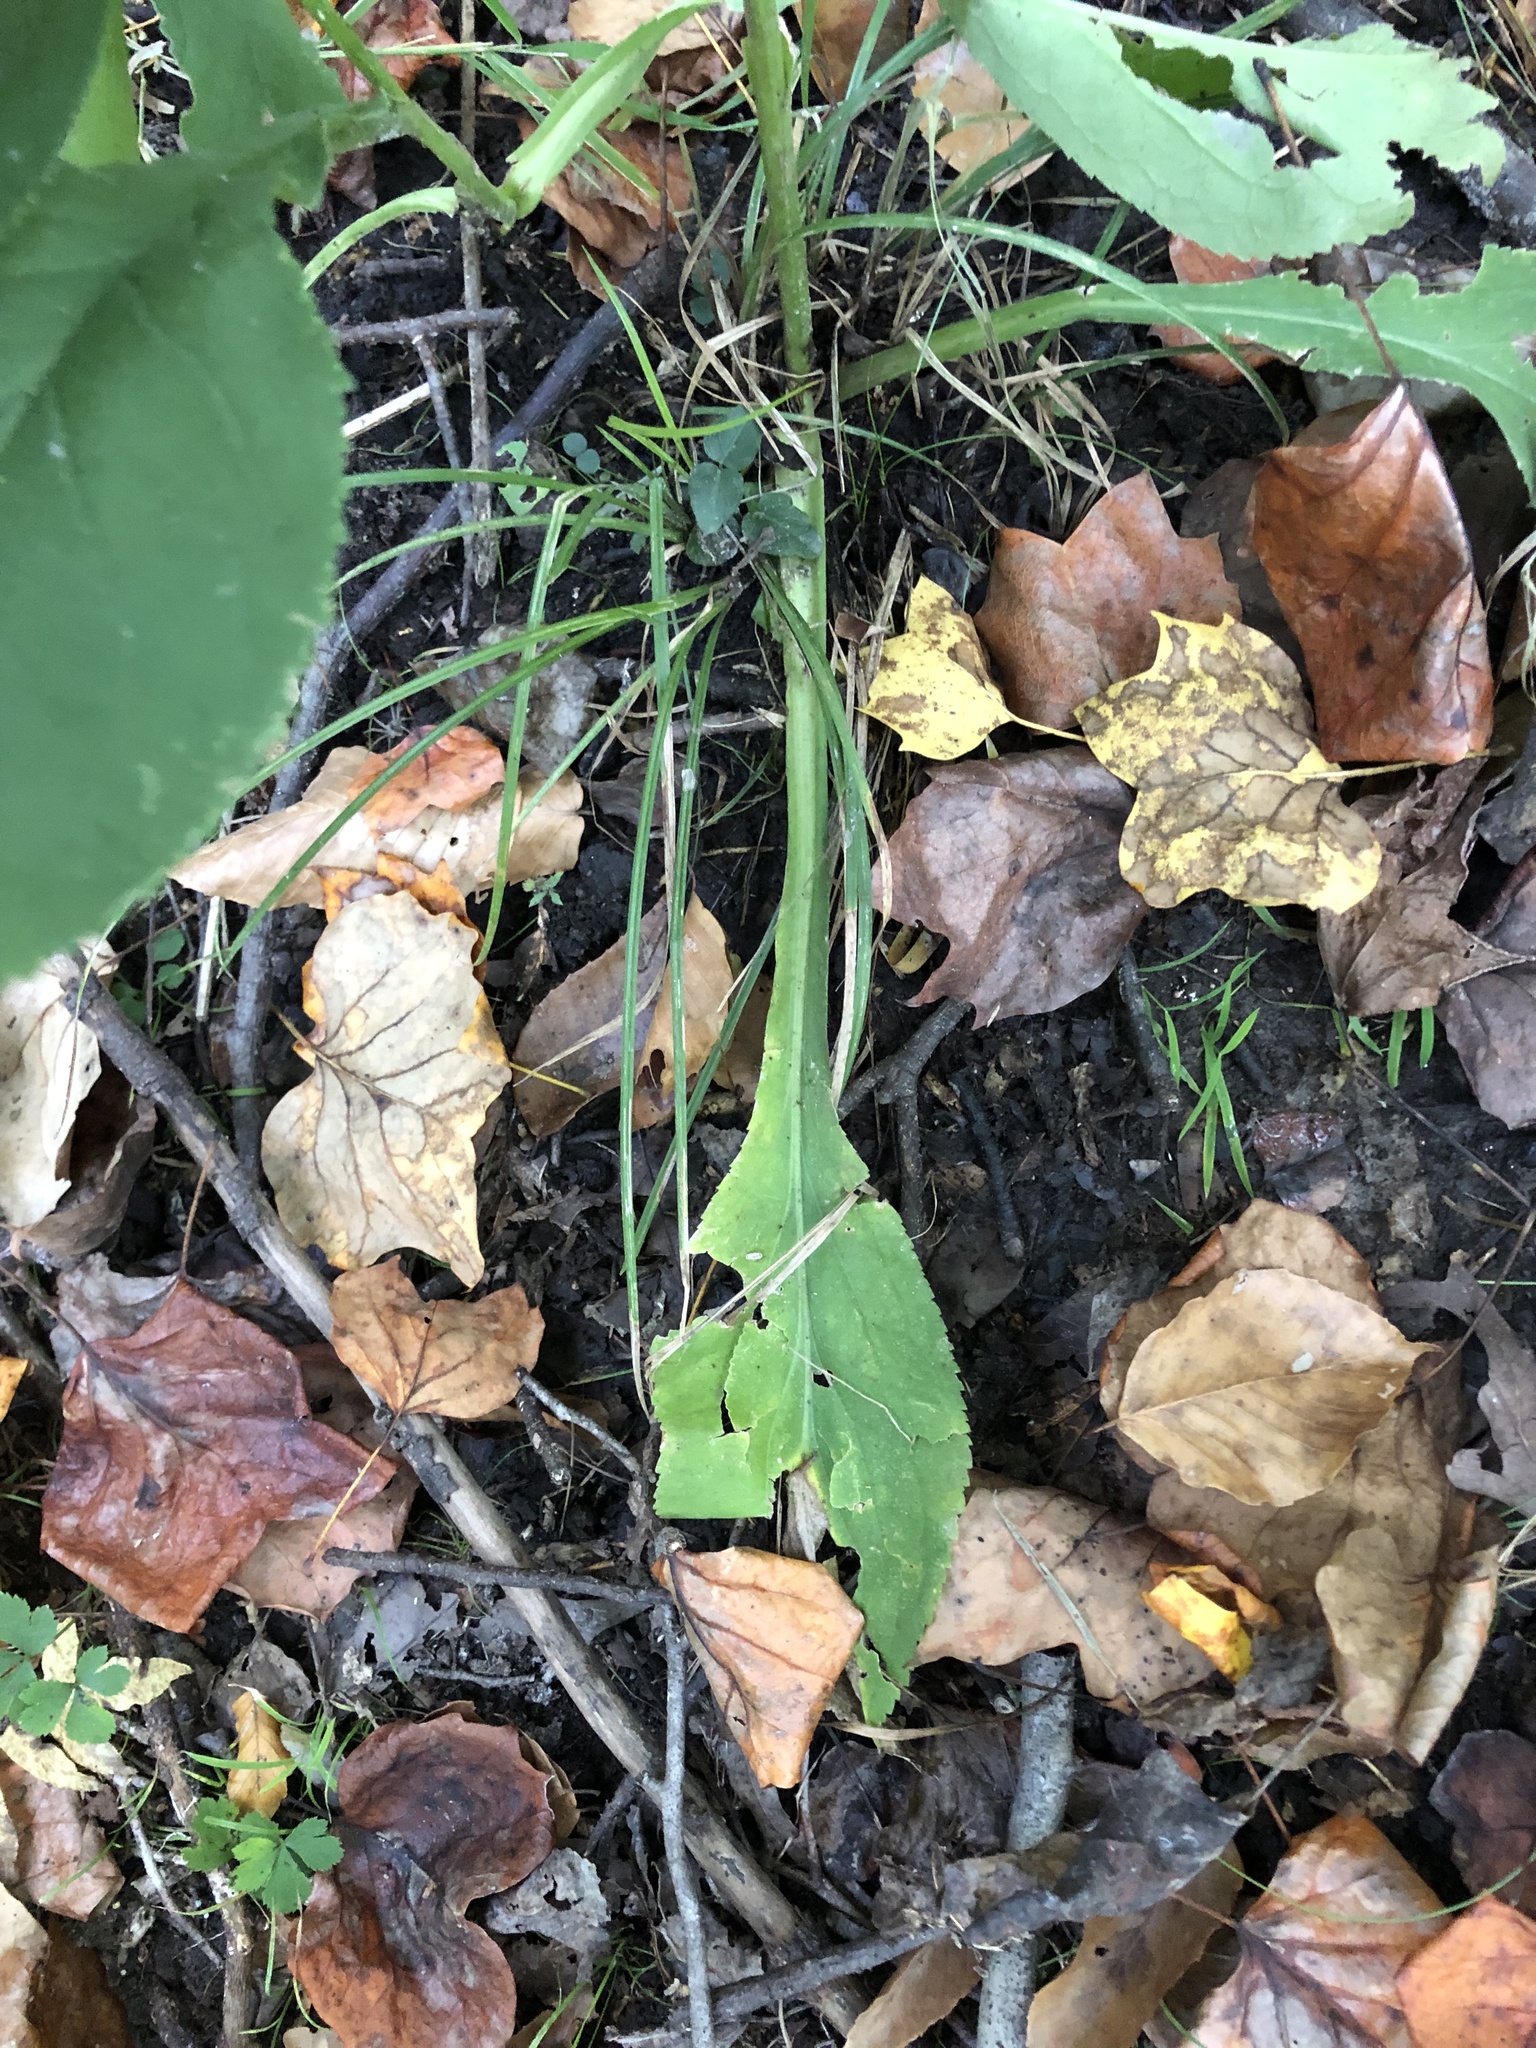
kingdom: Plantae
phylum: Tracheophyta
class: Magnoliopsida
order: Asterales
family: Asteraceae
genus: Solidago
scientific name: Solidago patula
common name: Rough-leaf goldenrod
